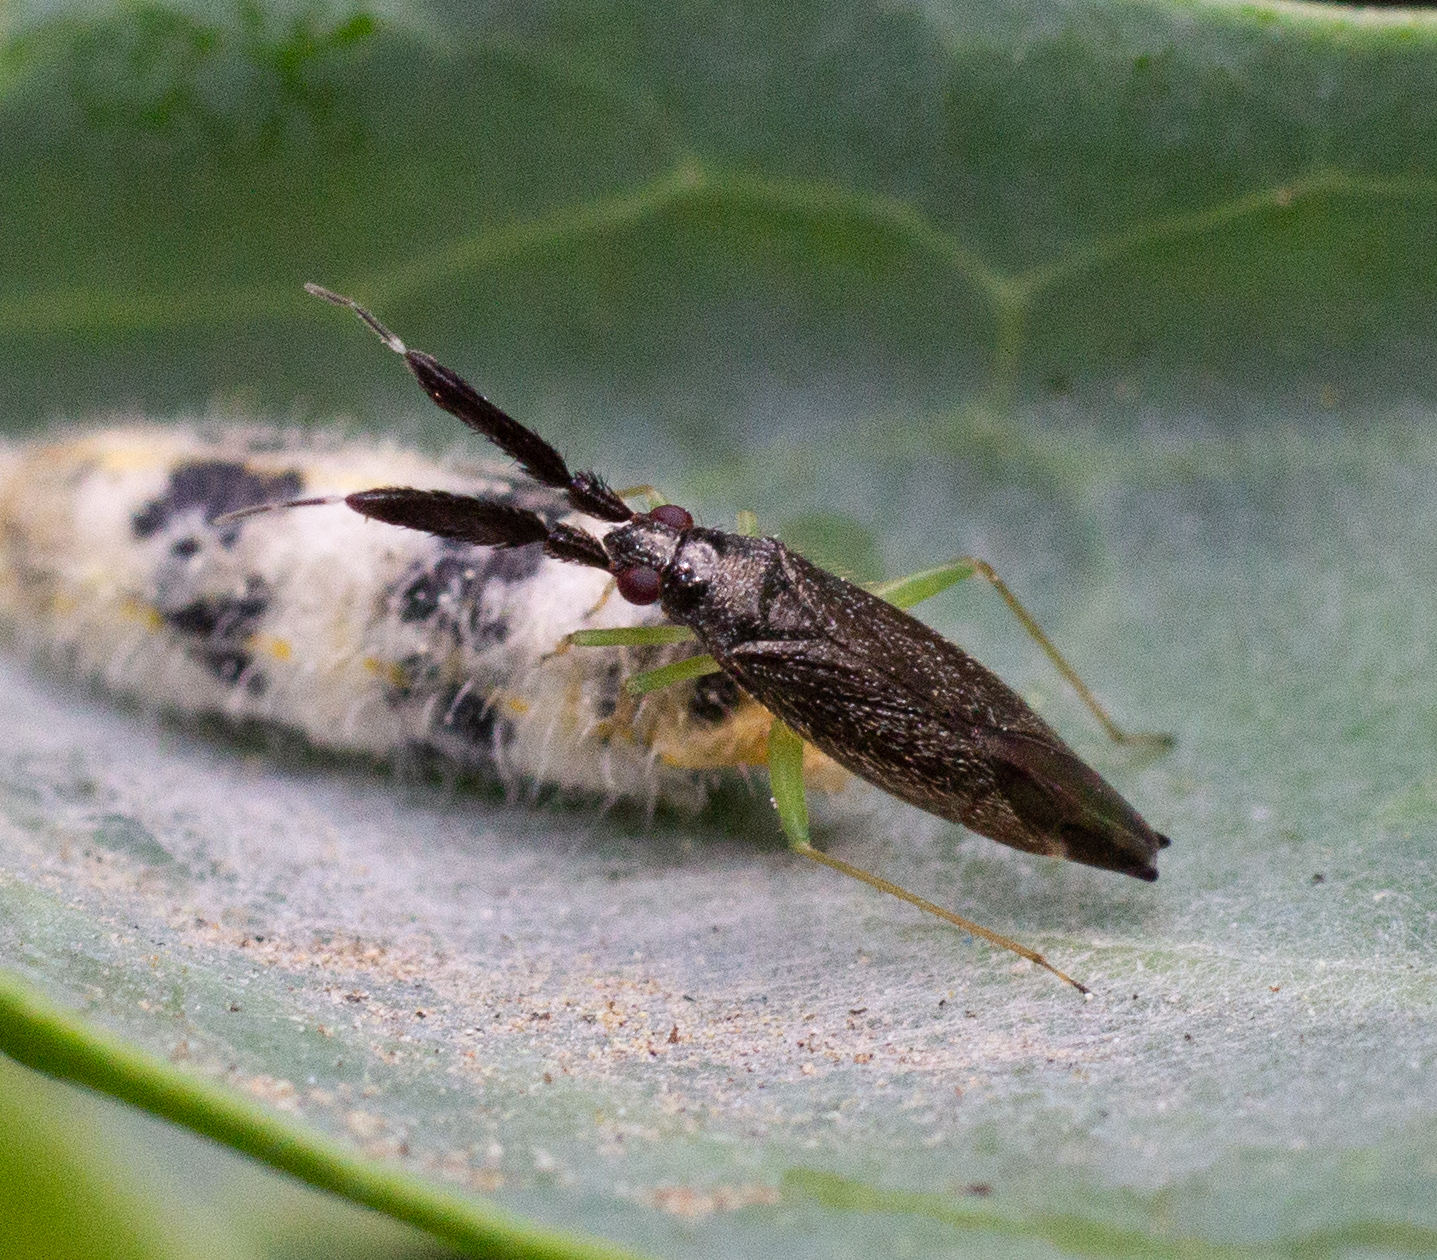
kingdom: Animalia
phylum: Arthropoda
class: Insecta
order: Hemiptera
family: Miridae
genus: Heterotoma
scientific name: Heterotoma planicornis
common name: Plant bug
